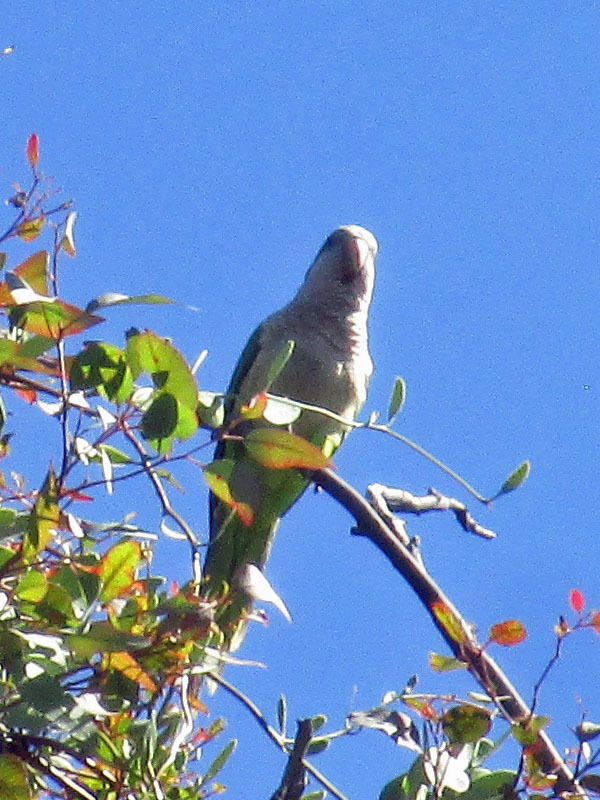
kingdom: Animalia
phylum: Chordata
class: Aves
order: Psittaciformes
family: Psittacidae
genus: Myiopsitta
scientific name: Myiopsitta monachus
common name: Monk parakeet
